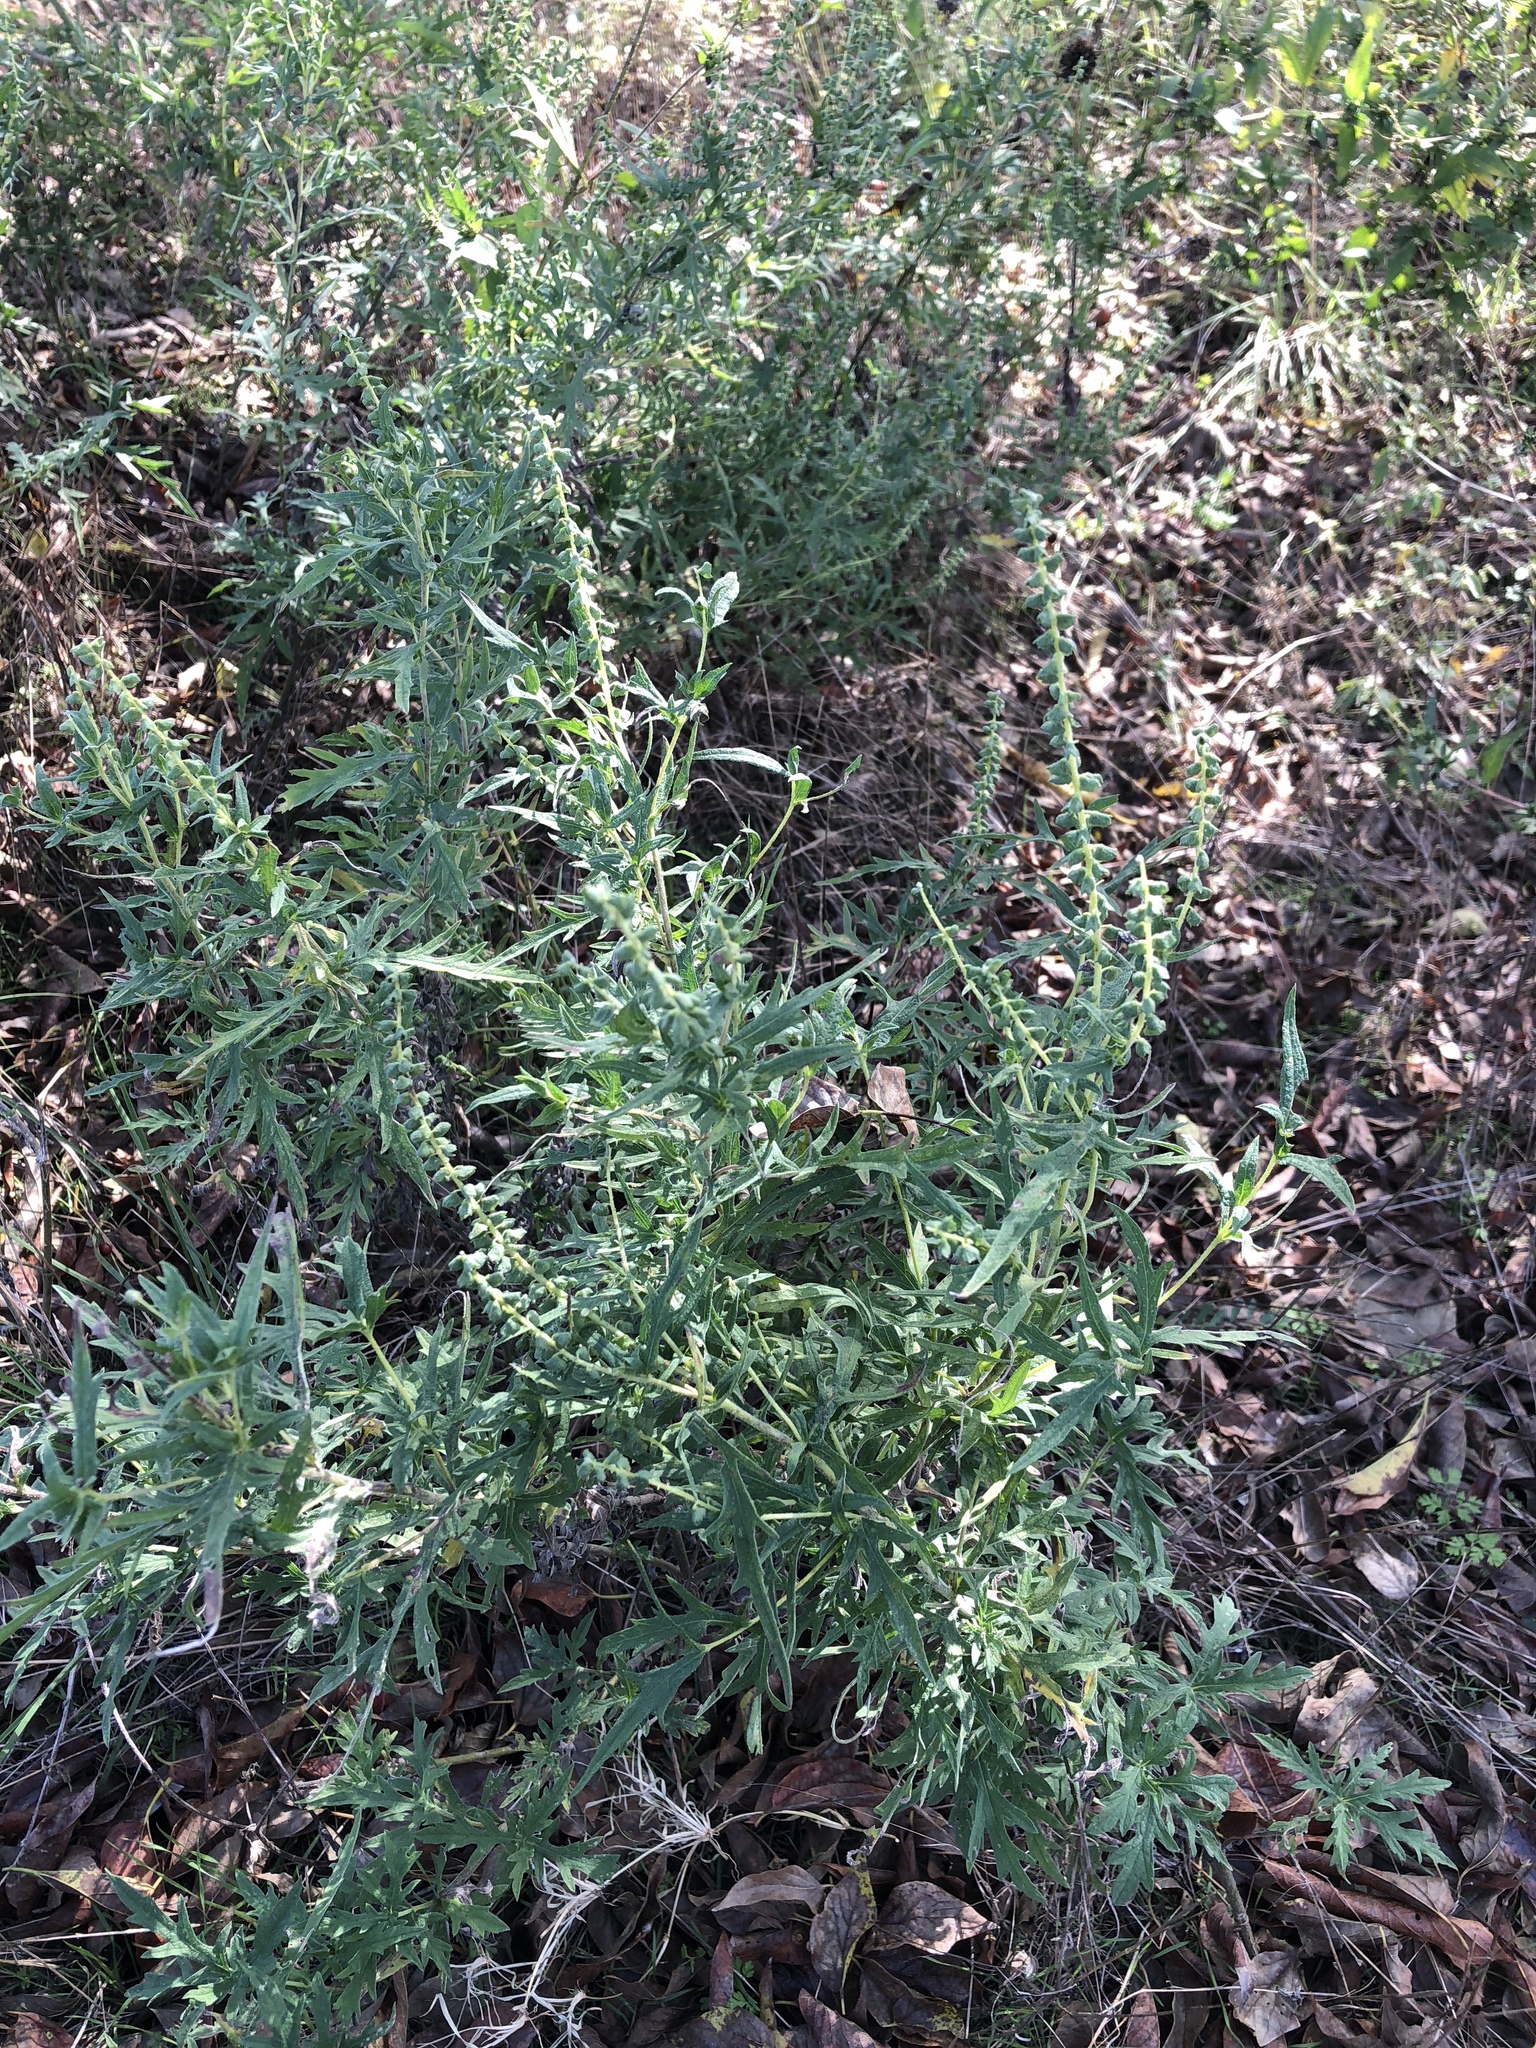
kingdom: Plantae
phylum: Tracheophyta
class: Magnoliopsida
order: Asterales
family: Asteraceae
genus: Ambrosia
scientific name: Ambrosia psilostachya
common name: Perennial ragweed
